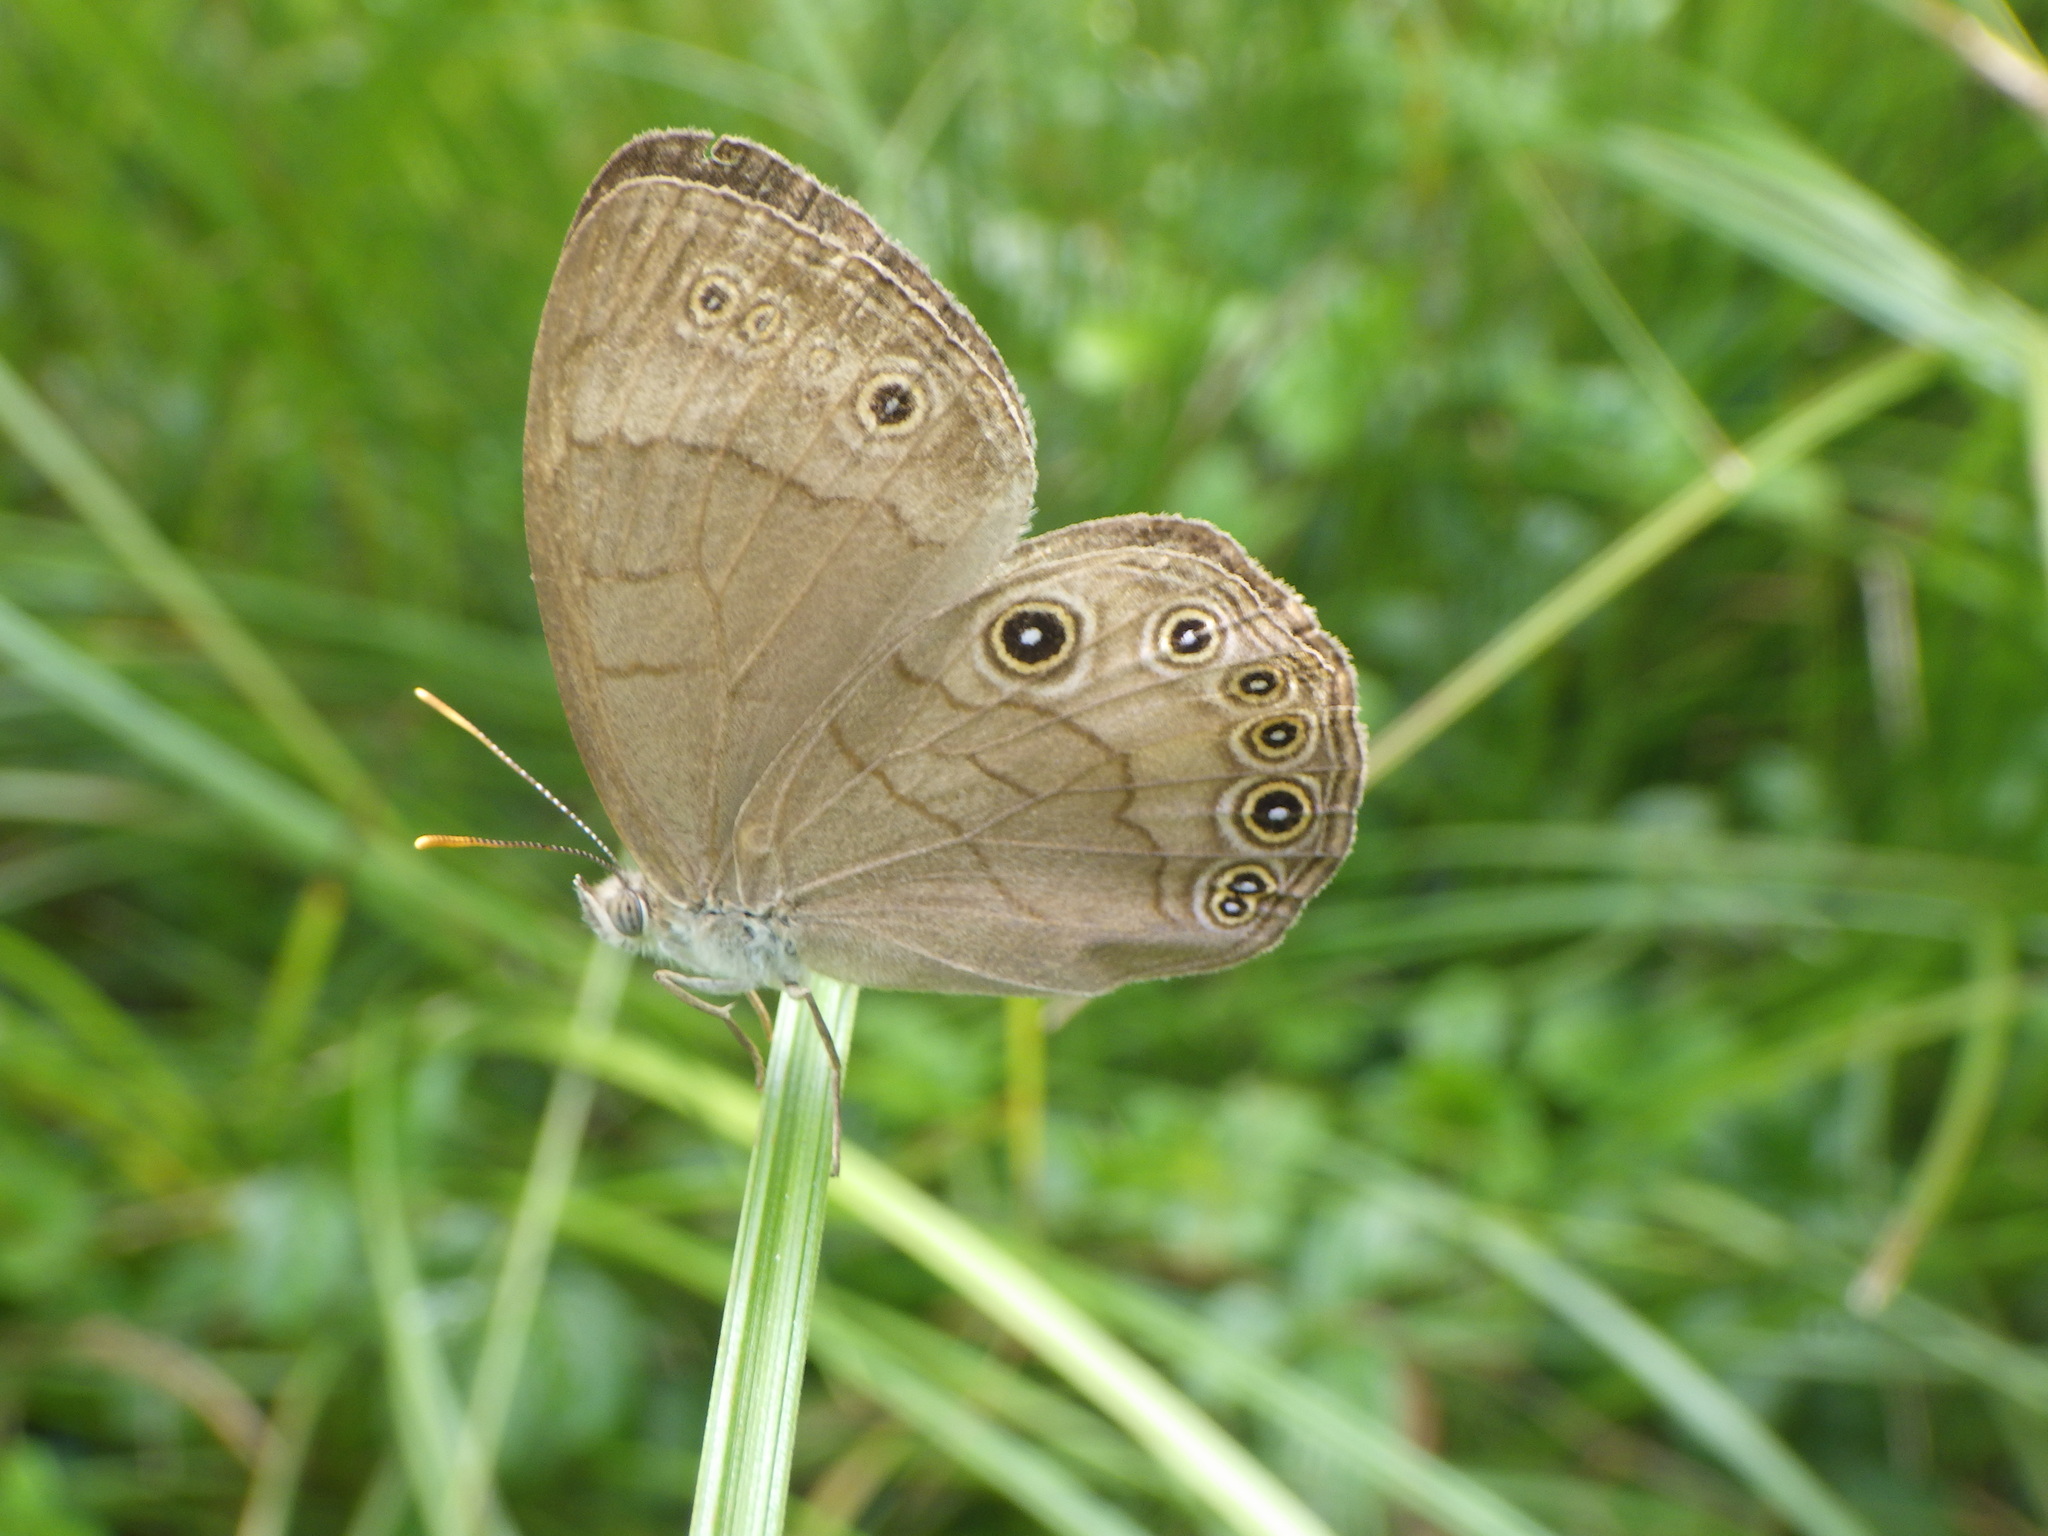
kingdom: Animalia
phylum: Arthropoda
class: Insecta
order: Lepidoptera
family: Nymphalidae
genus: Lethe
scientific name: Lethe eurydice
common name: Eyed brown
